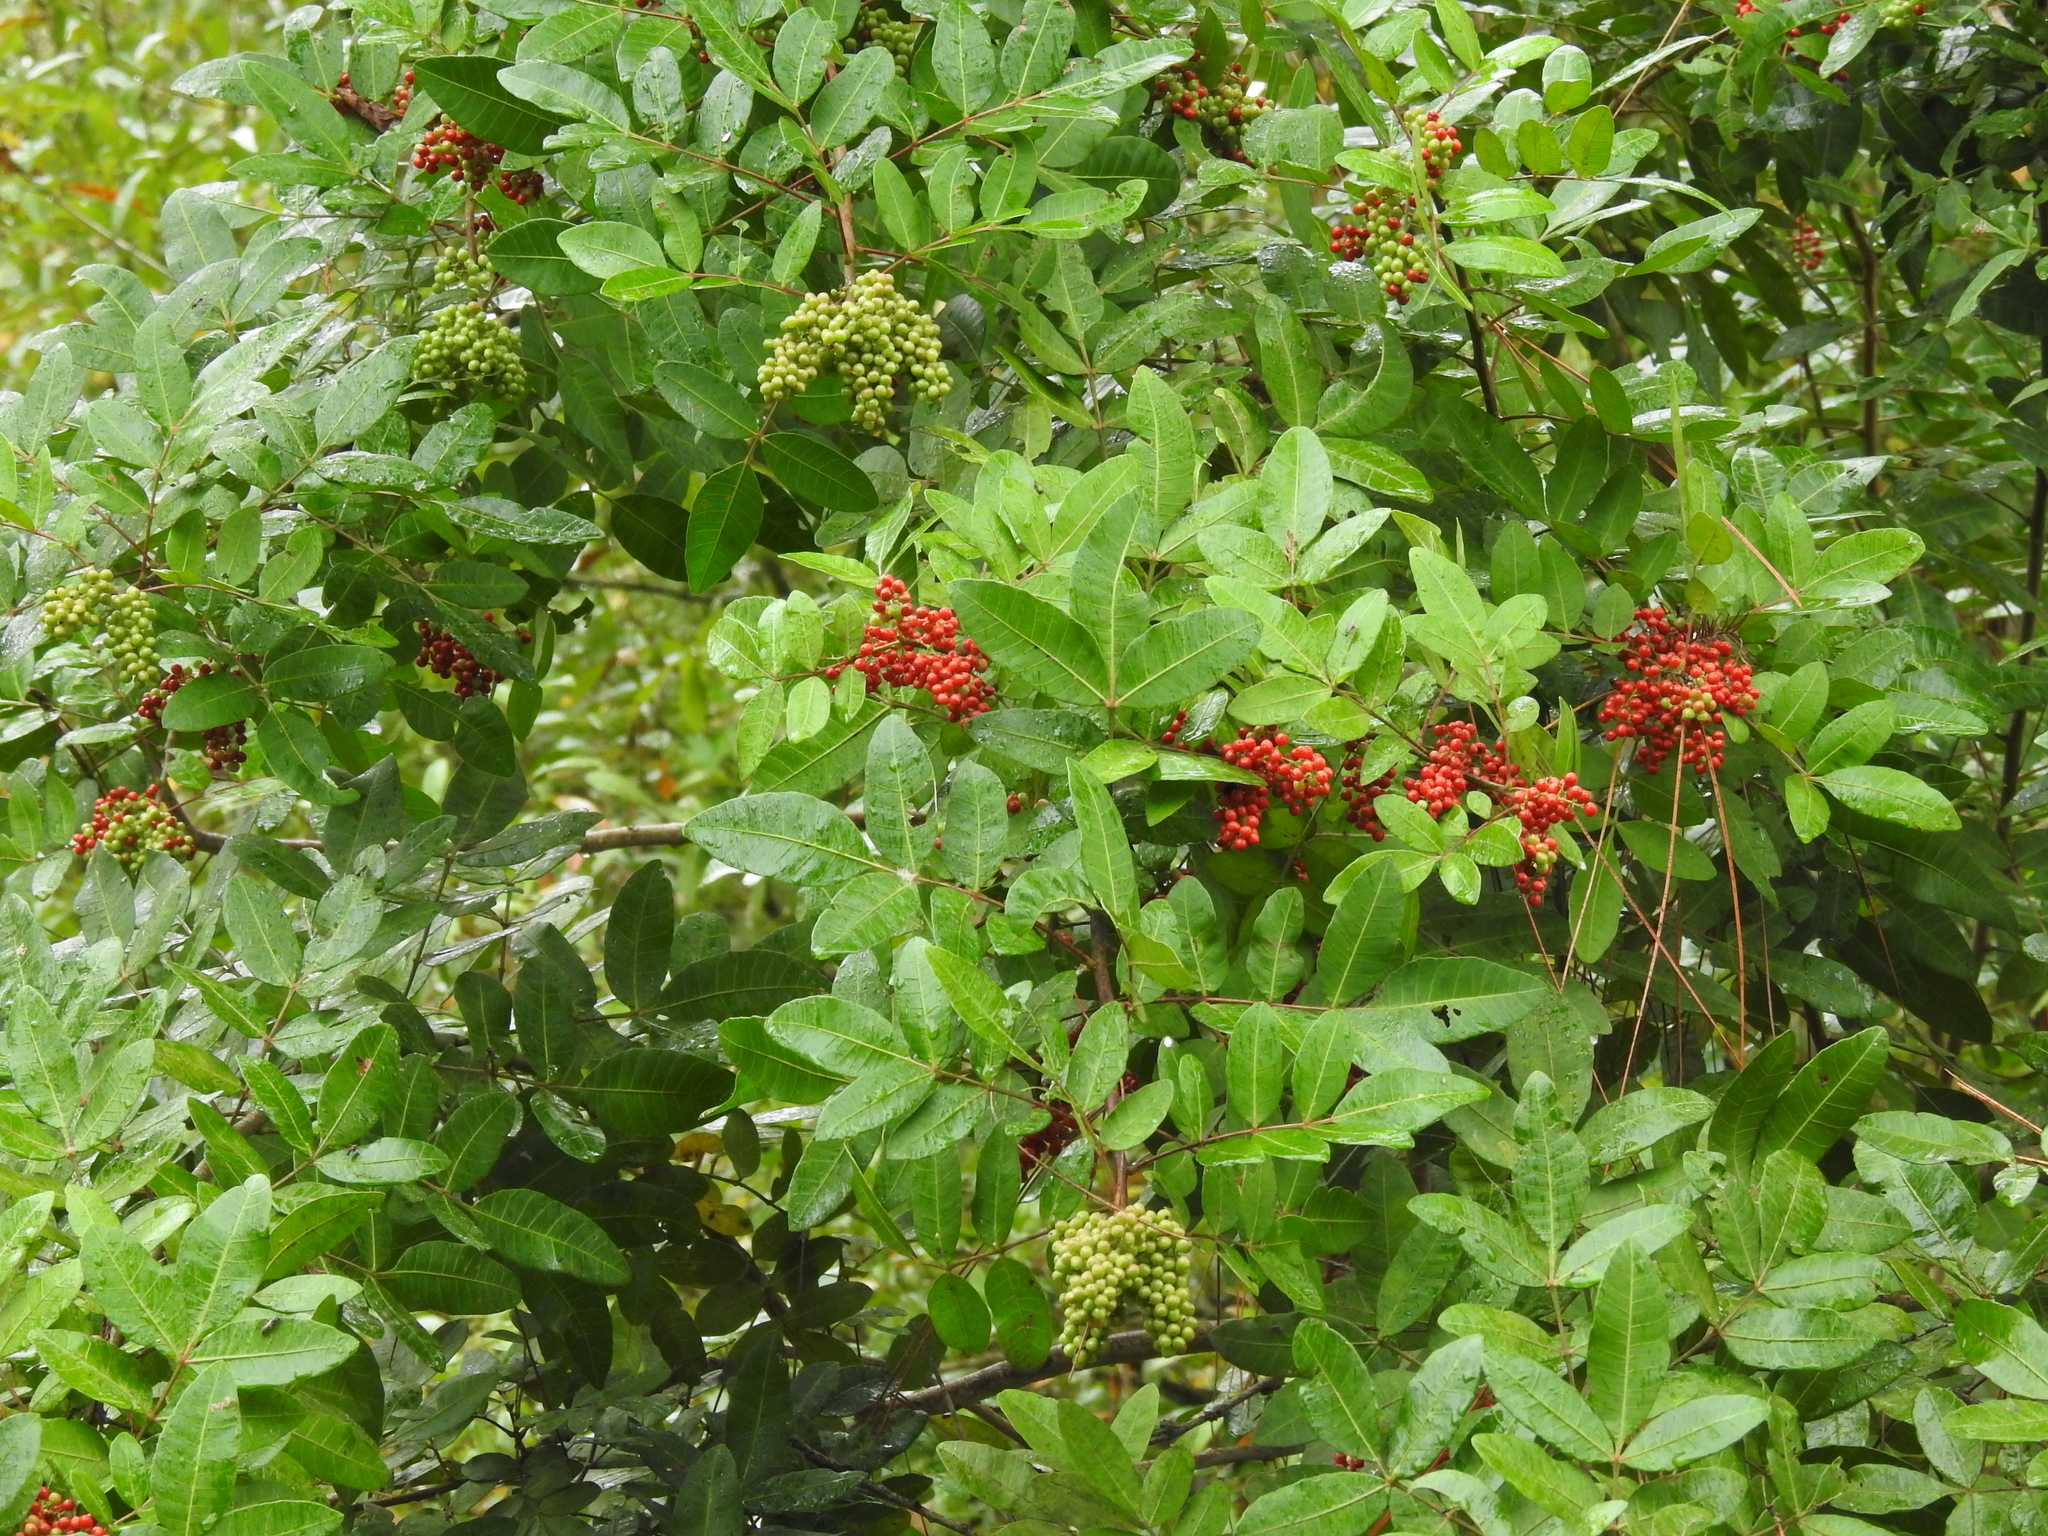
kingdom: Plantae
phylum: Tracheophyta
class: Magnoliopsida
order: Sapindales
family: Anacardiaceae
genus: Schinus
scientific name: Schinus terebinthifolia
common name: Brazilian peppertree
